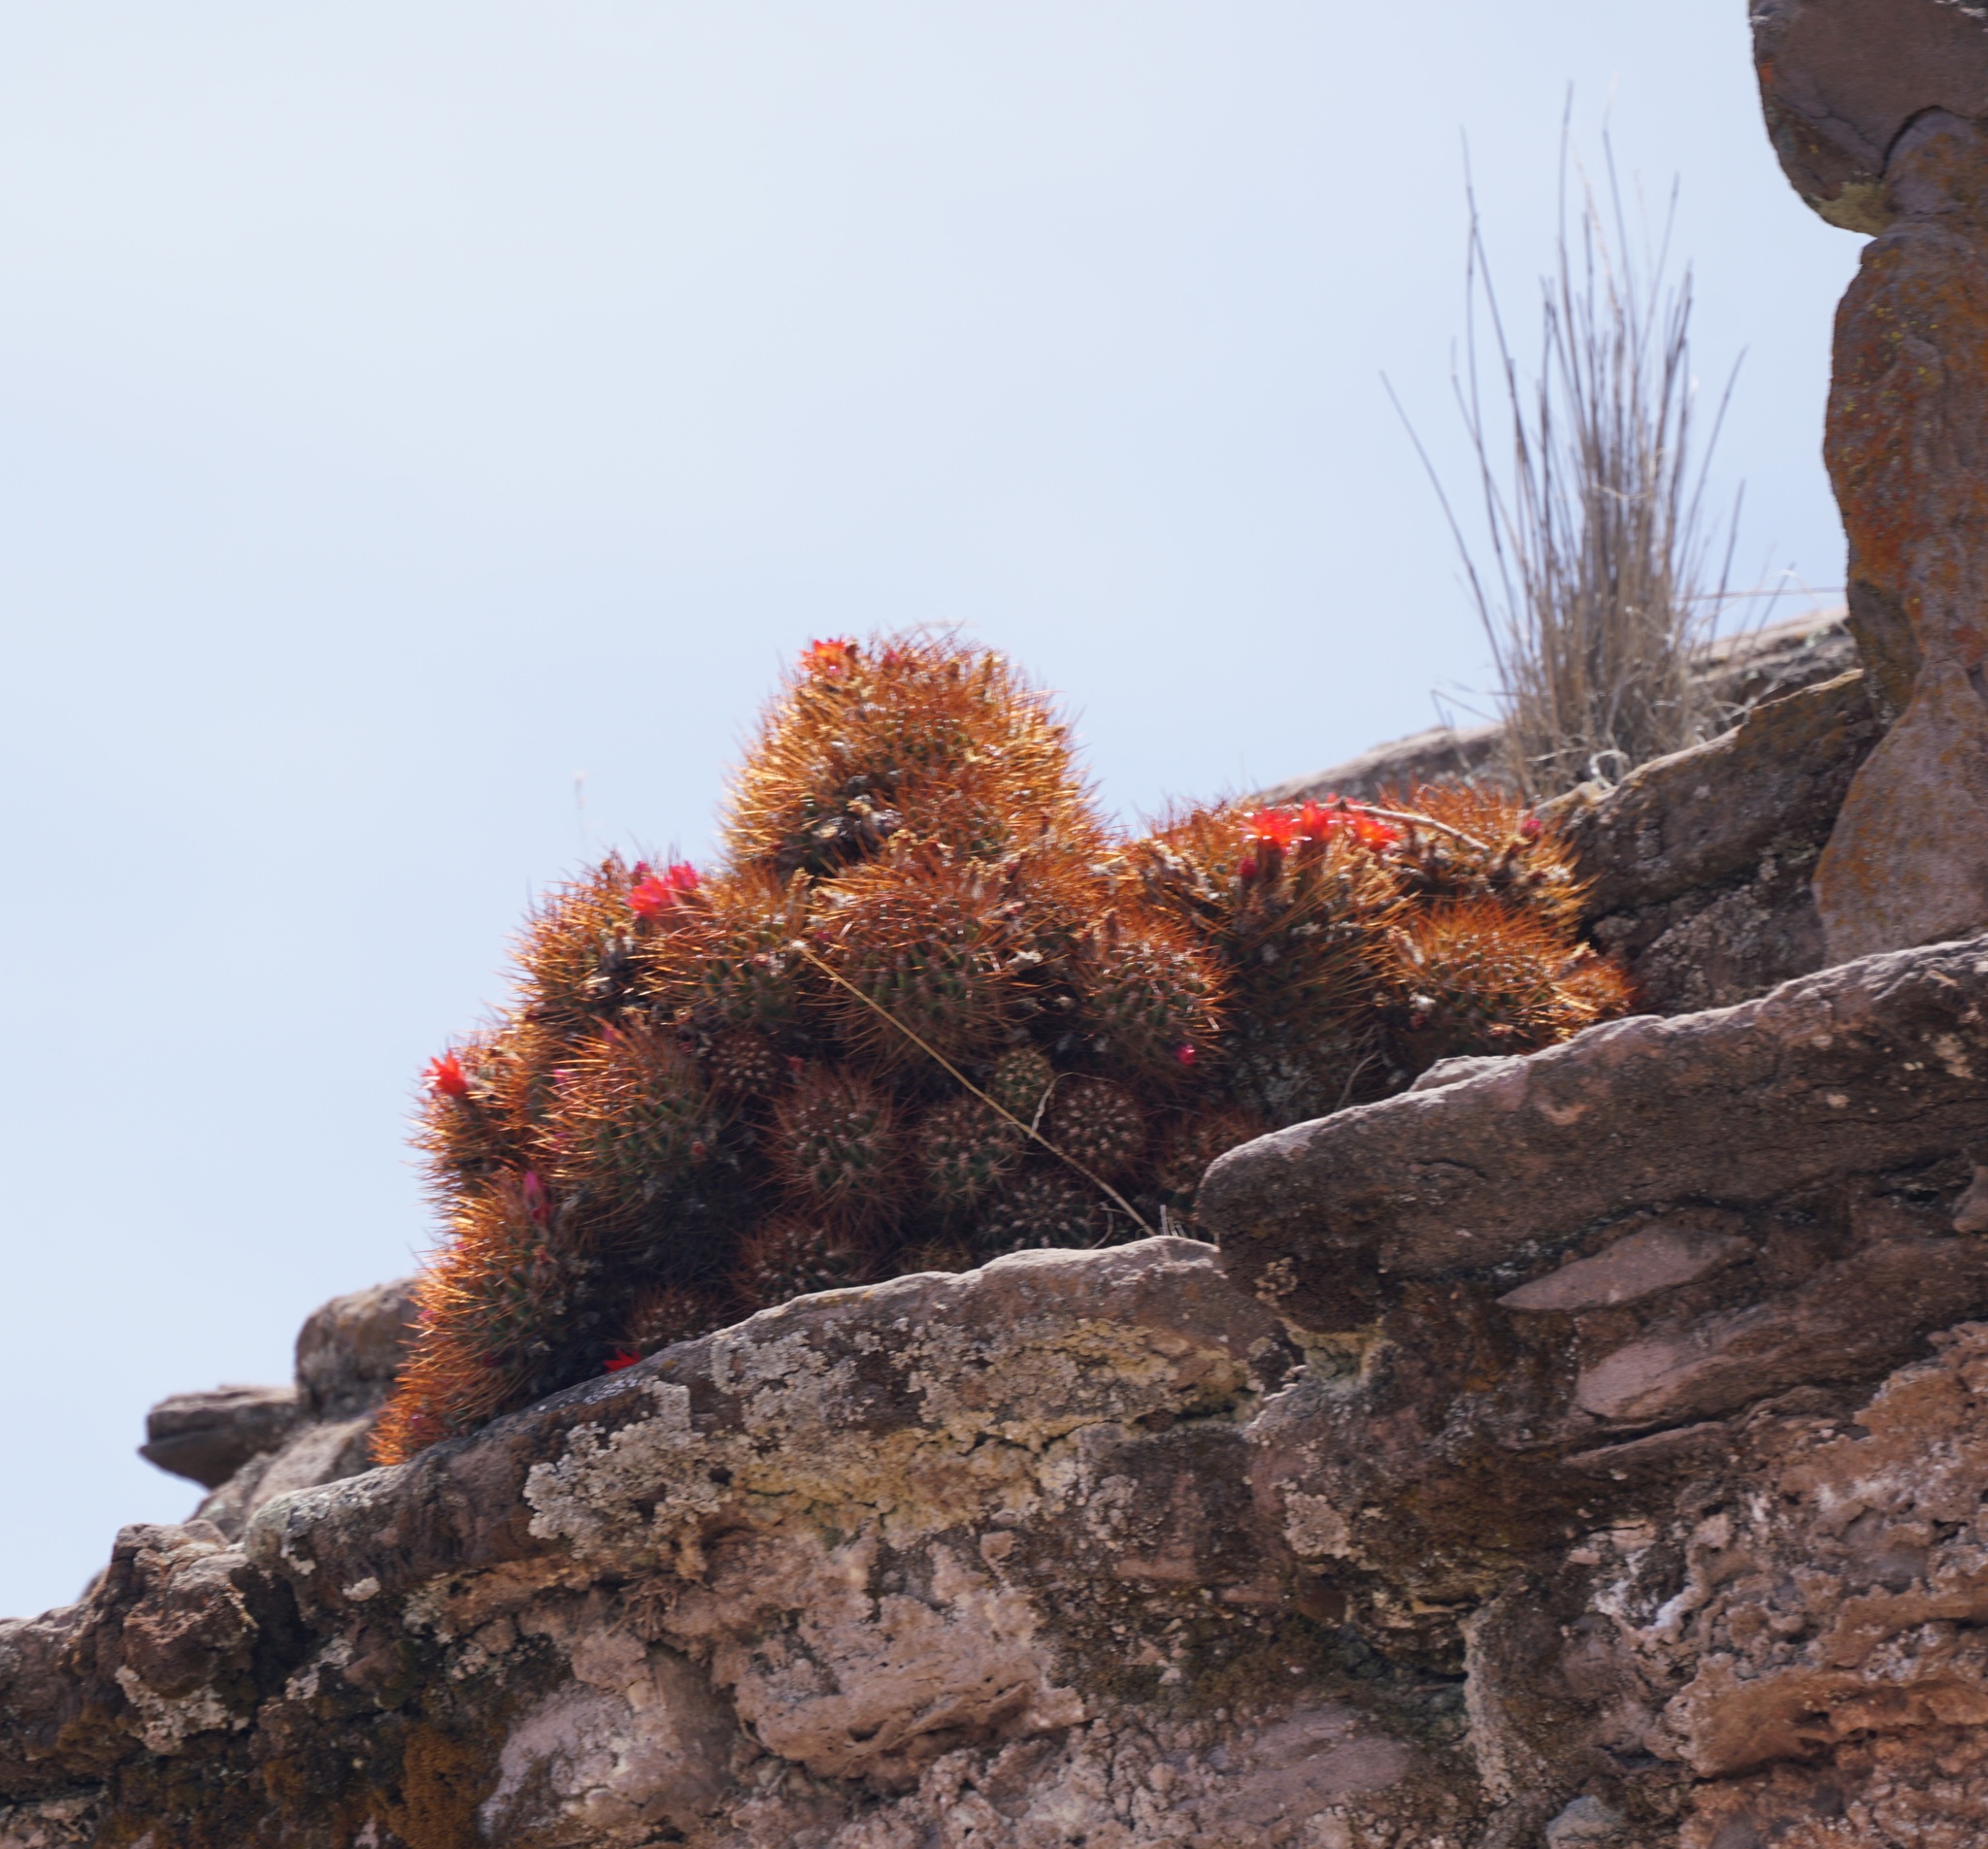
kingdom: Plantae
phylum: Tracheophyta
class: Magnoliopsida
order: Caryophyllales
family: Cactaceae
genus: Lobivia
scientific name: Lobivia maximiliana
